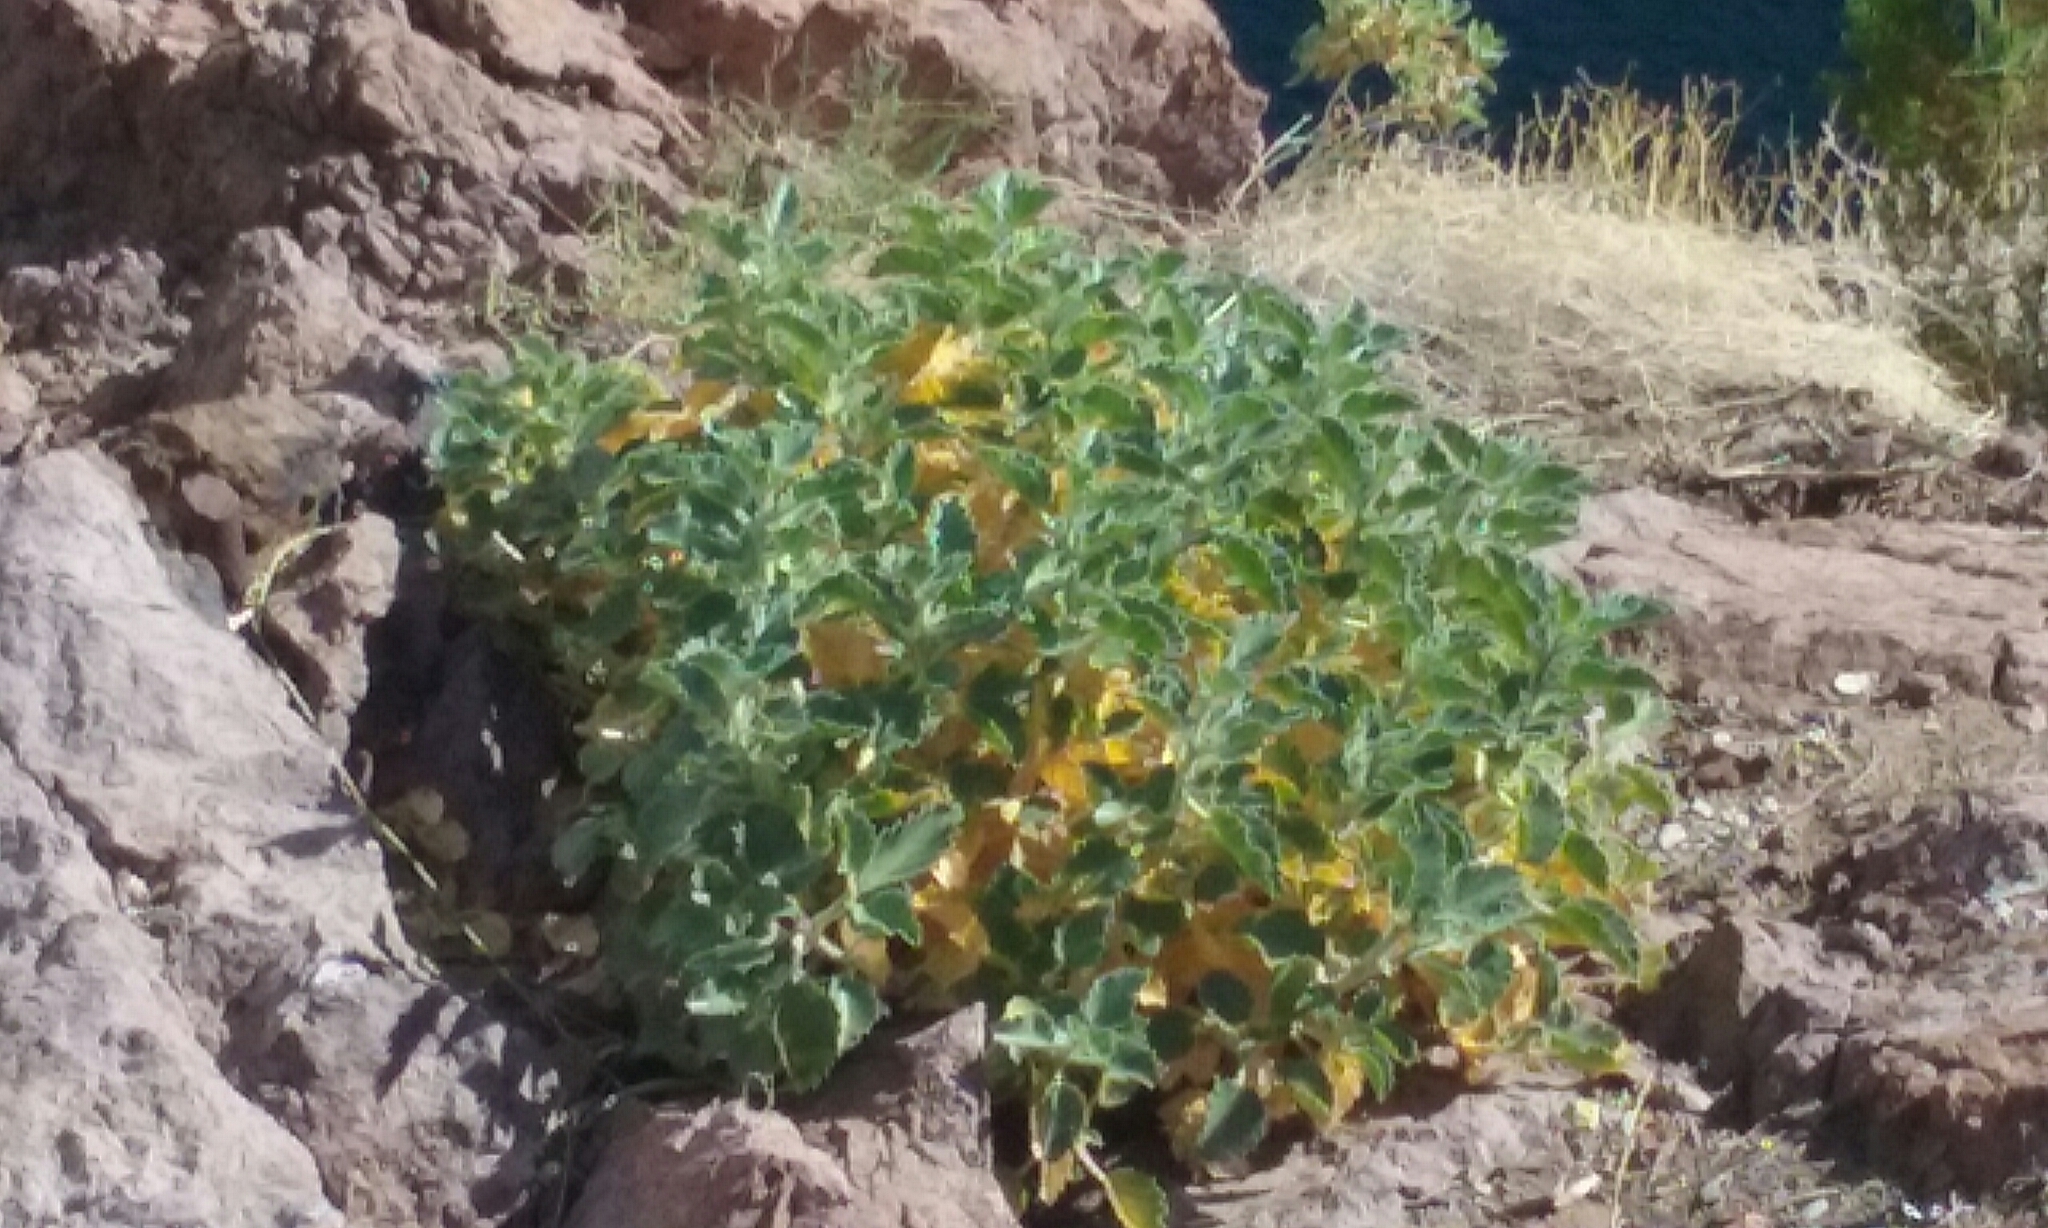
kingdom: Plantae
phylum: Tracheophyta
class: Magnoliopsida
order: Cornales
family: Loasaceae
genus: Eucnide
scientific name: Eucnide urens
